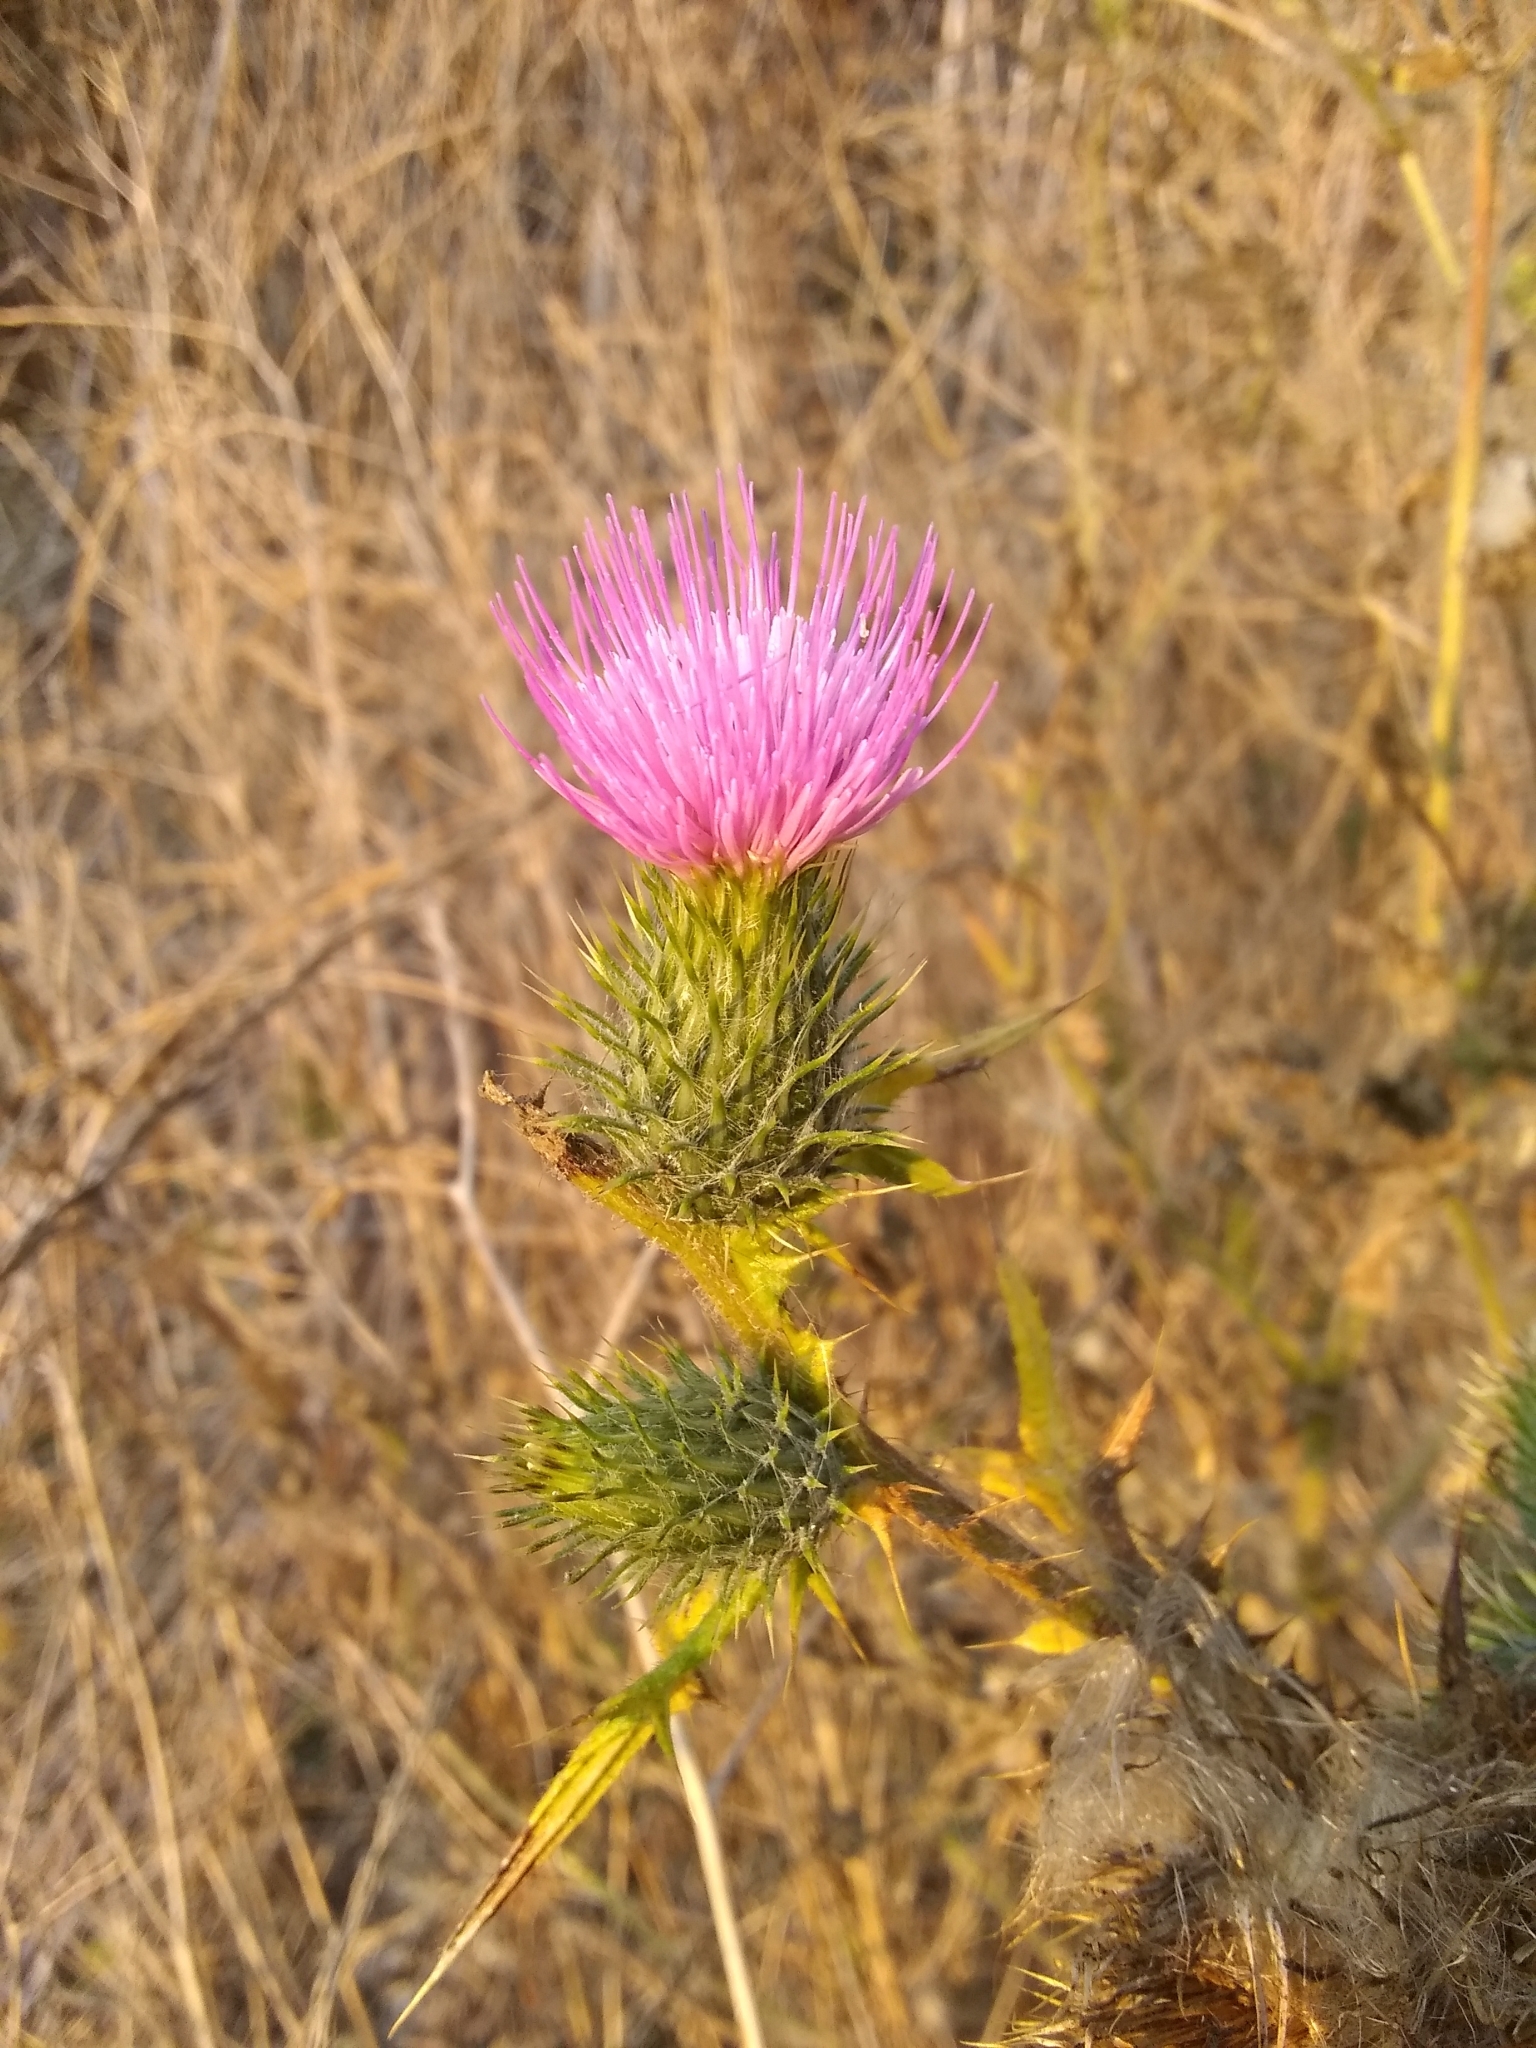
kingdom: Plantae
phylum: Tracheophyta
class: Magnoliopsida
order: Asterales
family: Asteraceae
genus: Cirsium
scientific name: Cirsium vulgare
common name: Bull thistle
